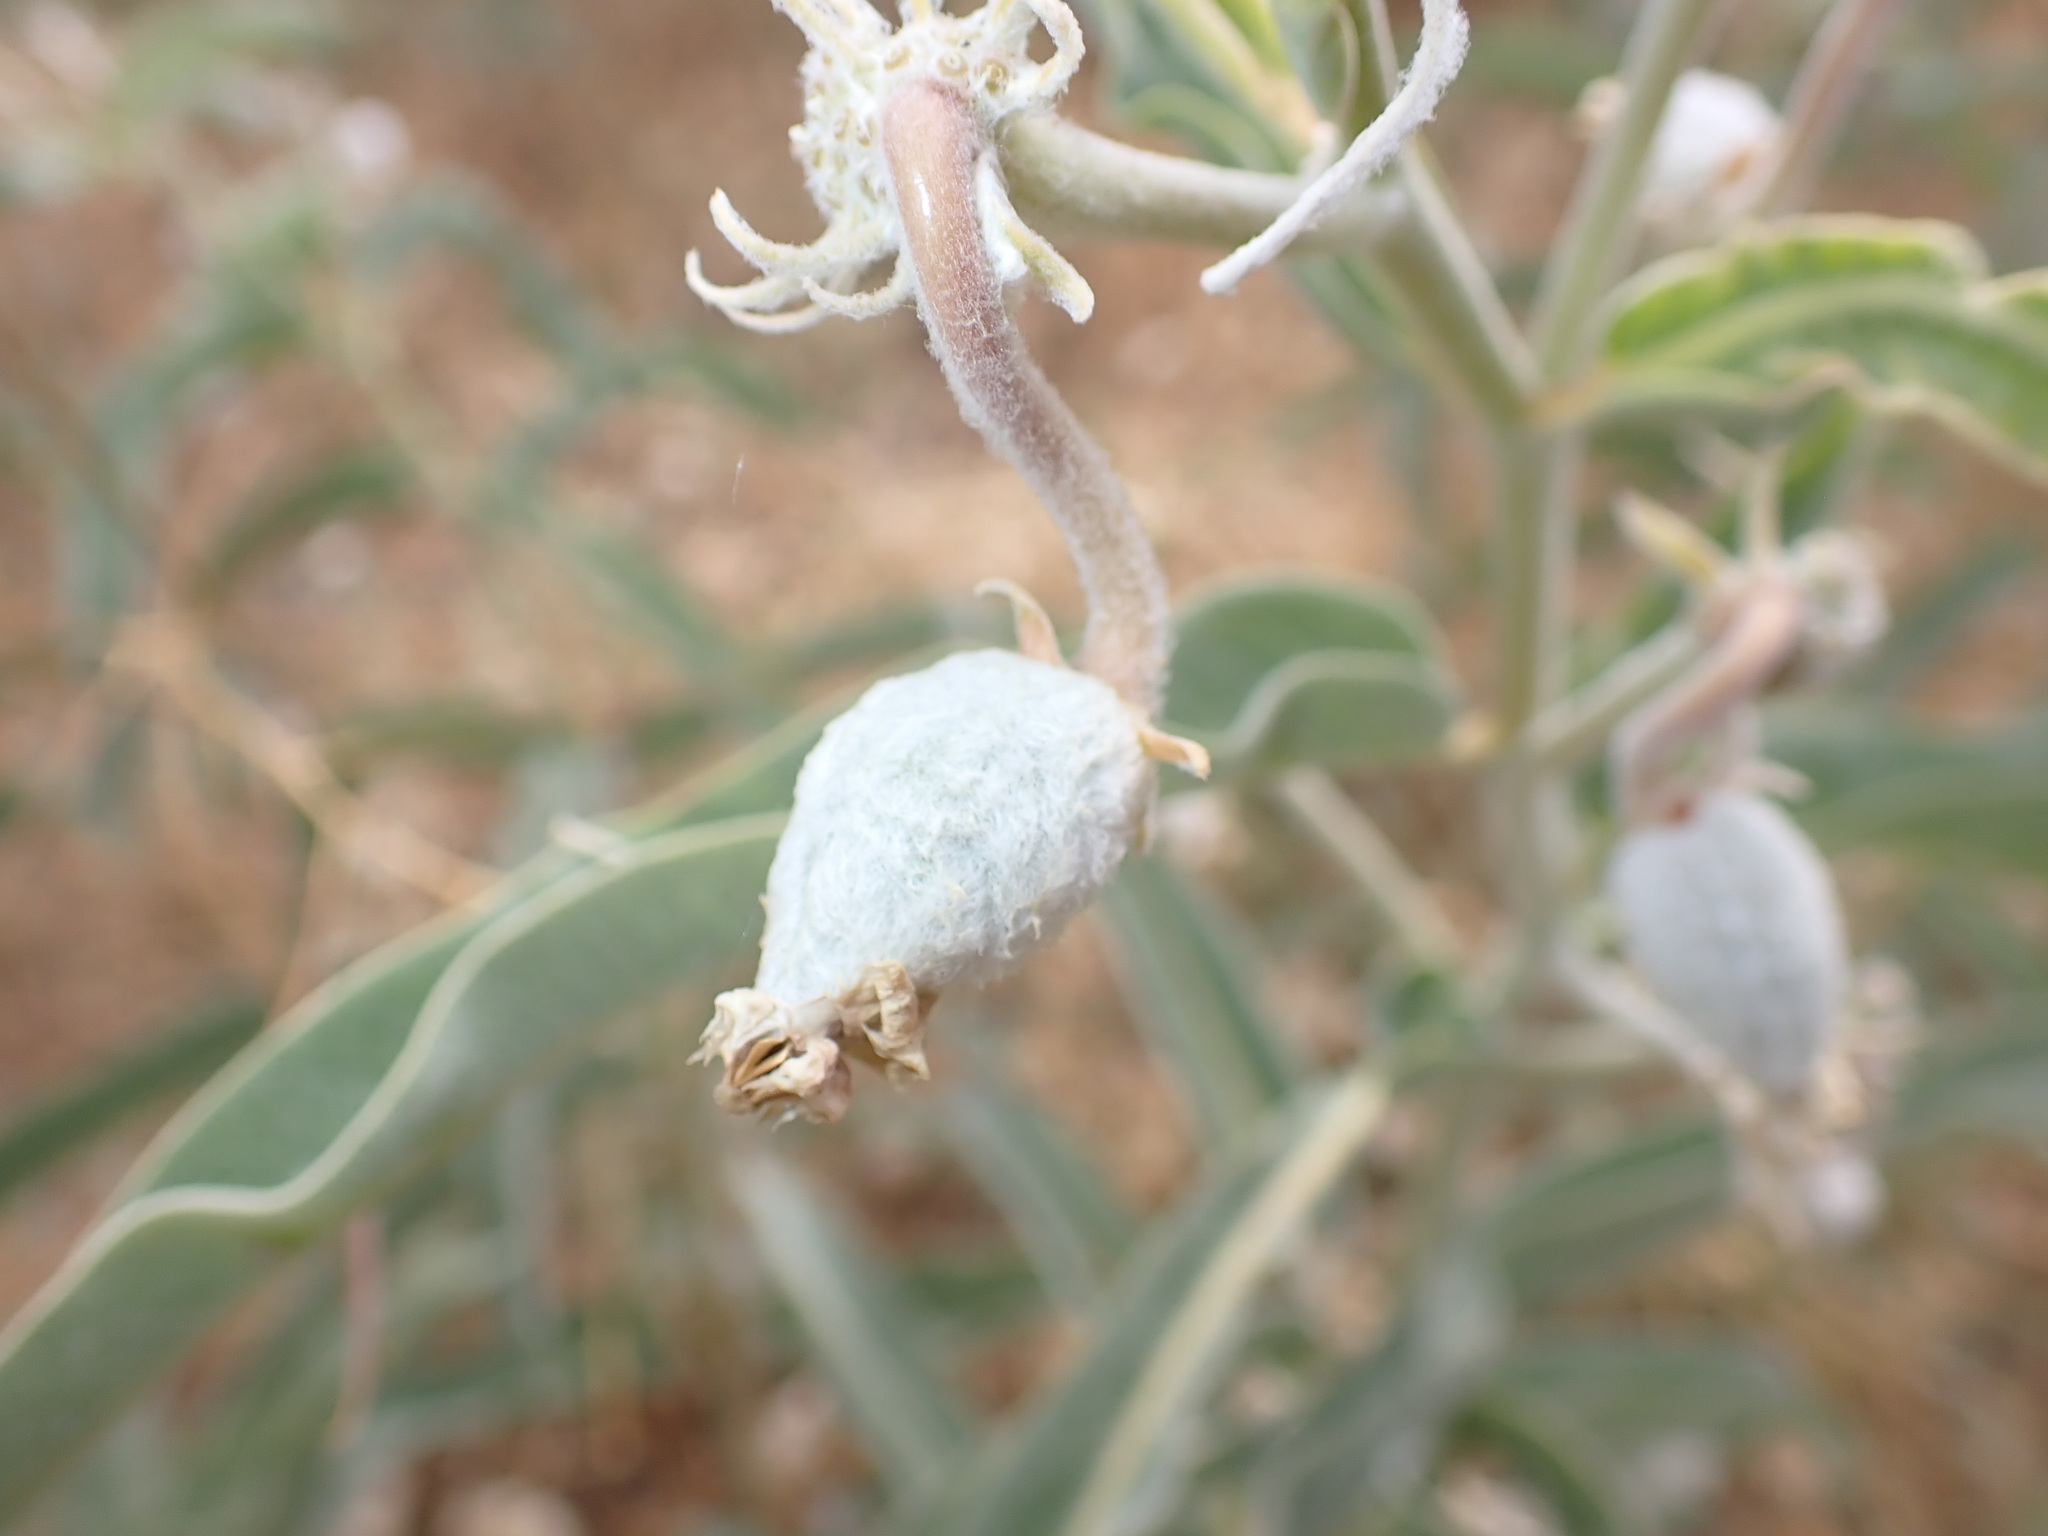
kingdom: Plantae
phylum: Tracheophyta
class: Magnoliopsida
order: Gentianales
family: Apocynaceae
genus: Asclepias
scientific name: Asclepias eriocarpa
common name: Indian milkweed
